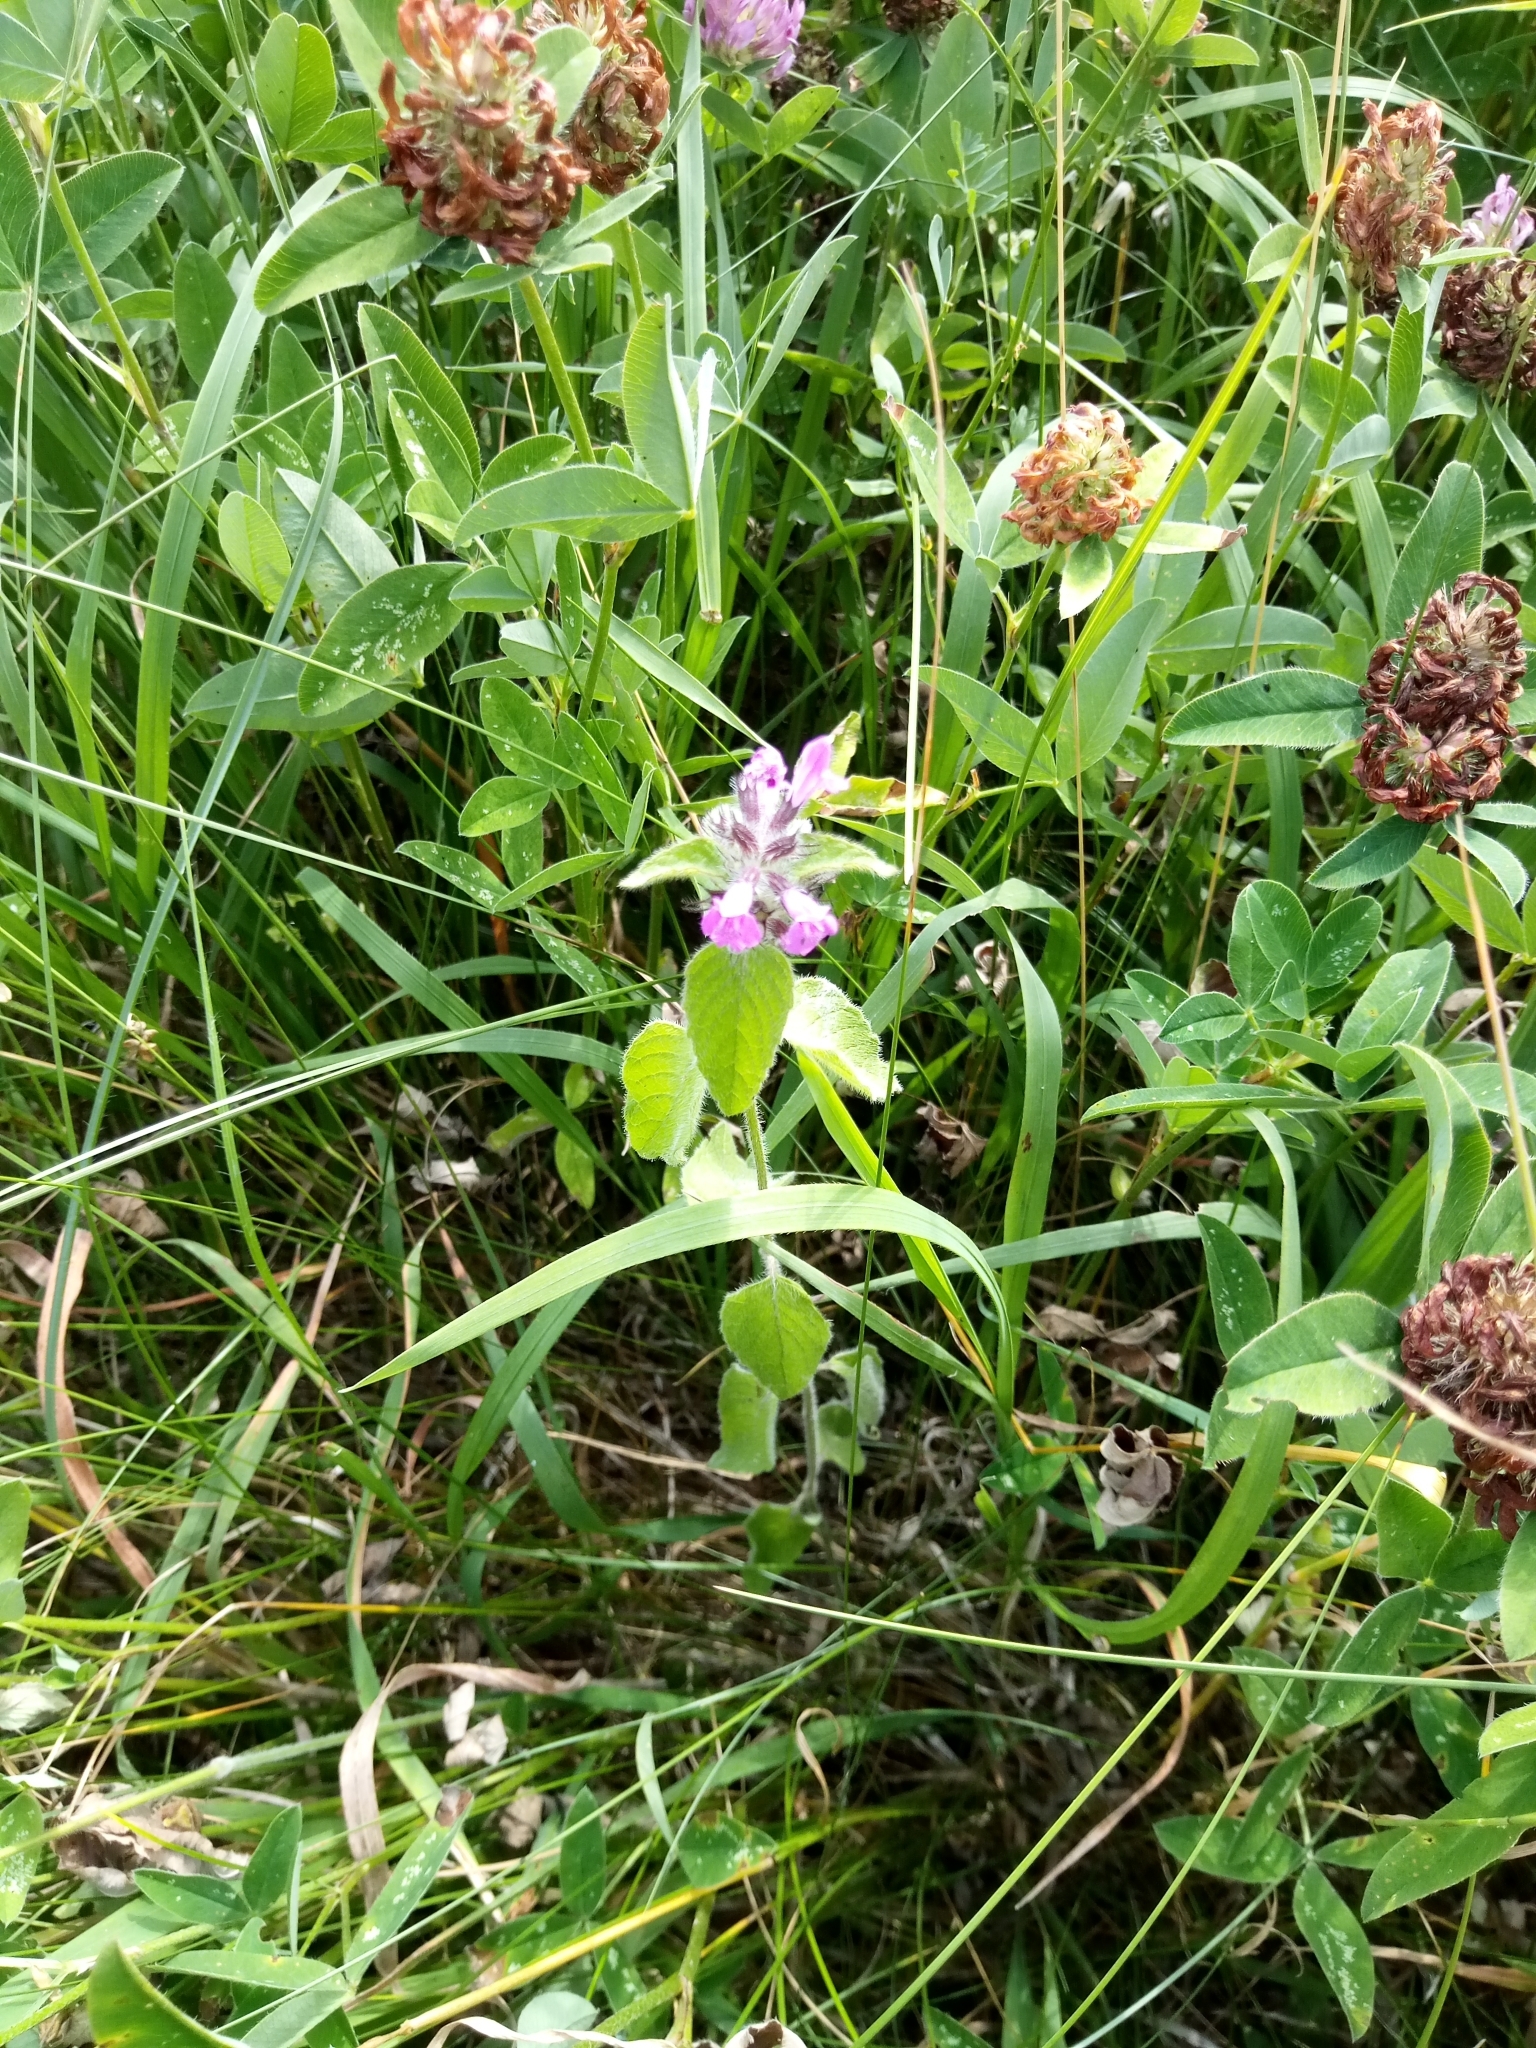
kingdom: Plantae
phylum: Tracheophyta
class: Magnoliopsida
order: Lamiales
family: Lamiaceae
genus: Clinopodium
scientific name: Clinopodium vulgare
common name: Wild basil
